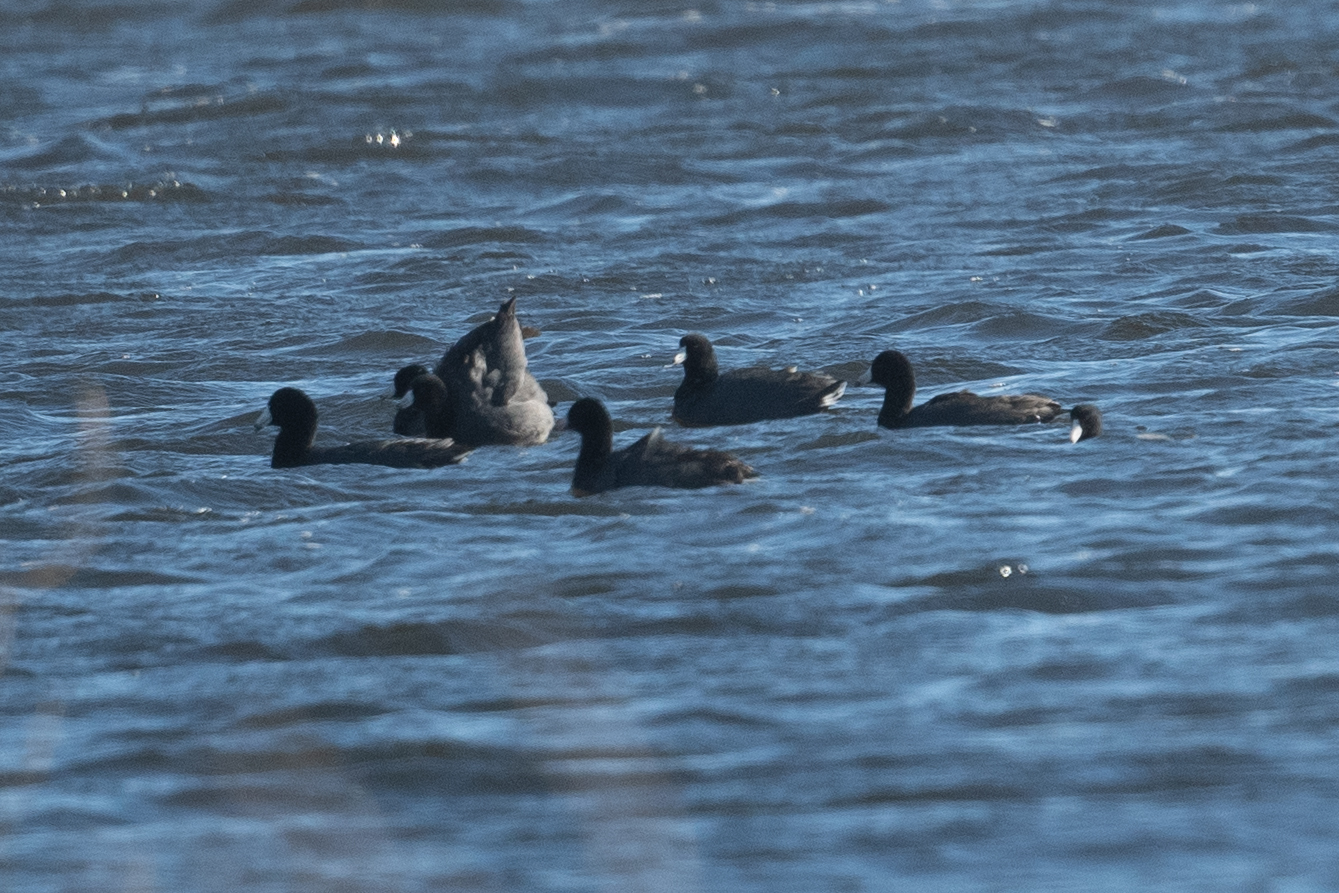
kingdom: Animalia
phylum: Chordata
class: Aves
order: Gruiformes
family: Rallidae
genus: Fulica
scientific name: Fulica americana
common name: American coot
